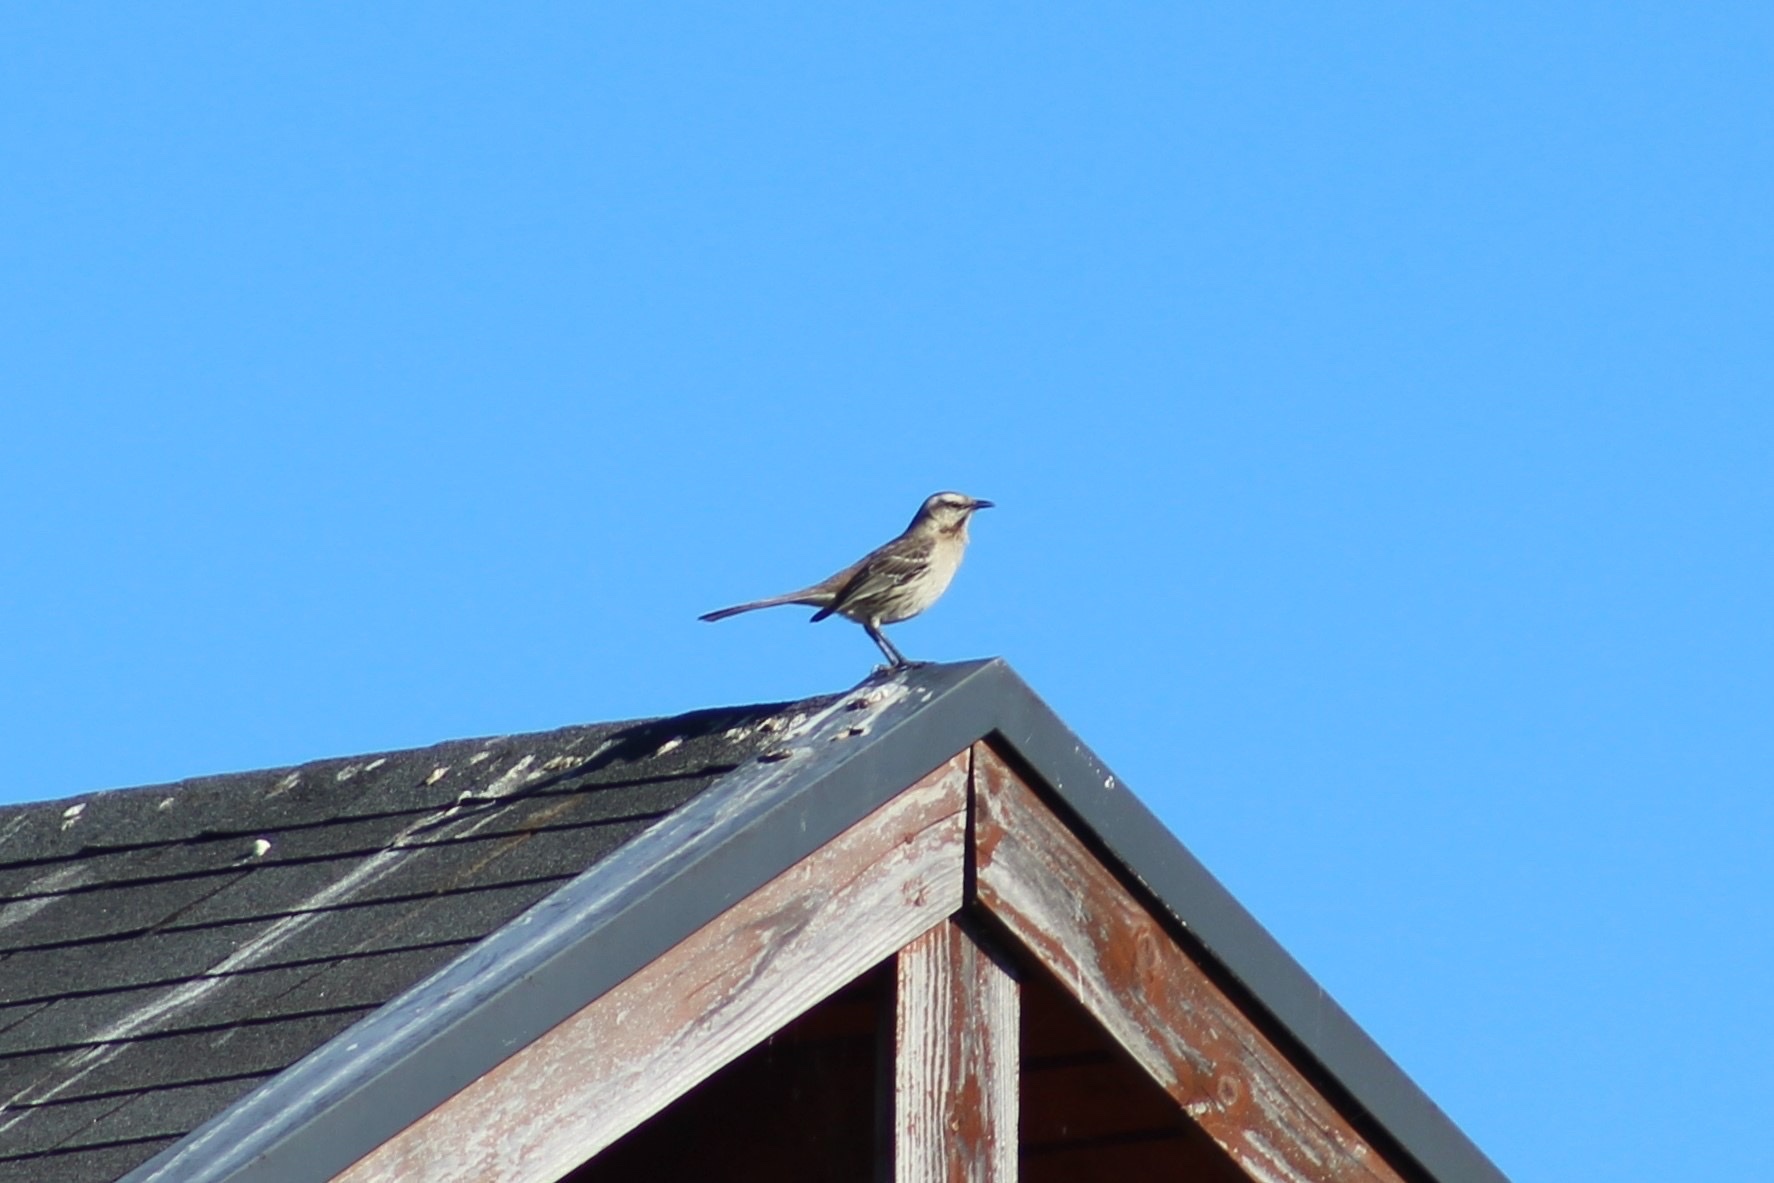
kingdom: Animalia
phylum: Chordata
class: Aves
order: Passeriformes
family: Mimidae
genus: Mimus
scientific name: Mimus thenca
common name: Chilean mockingbird
